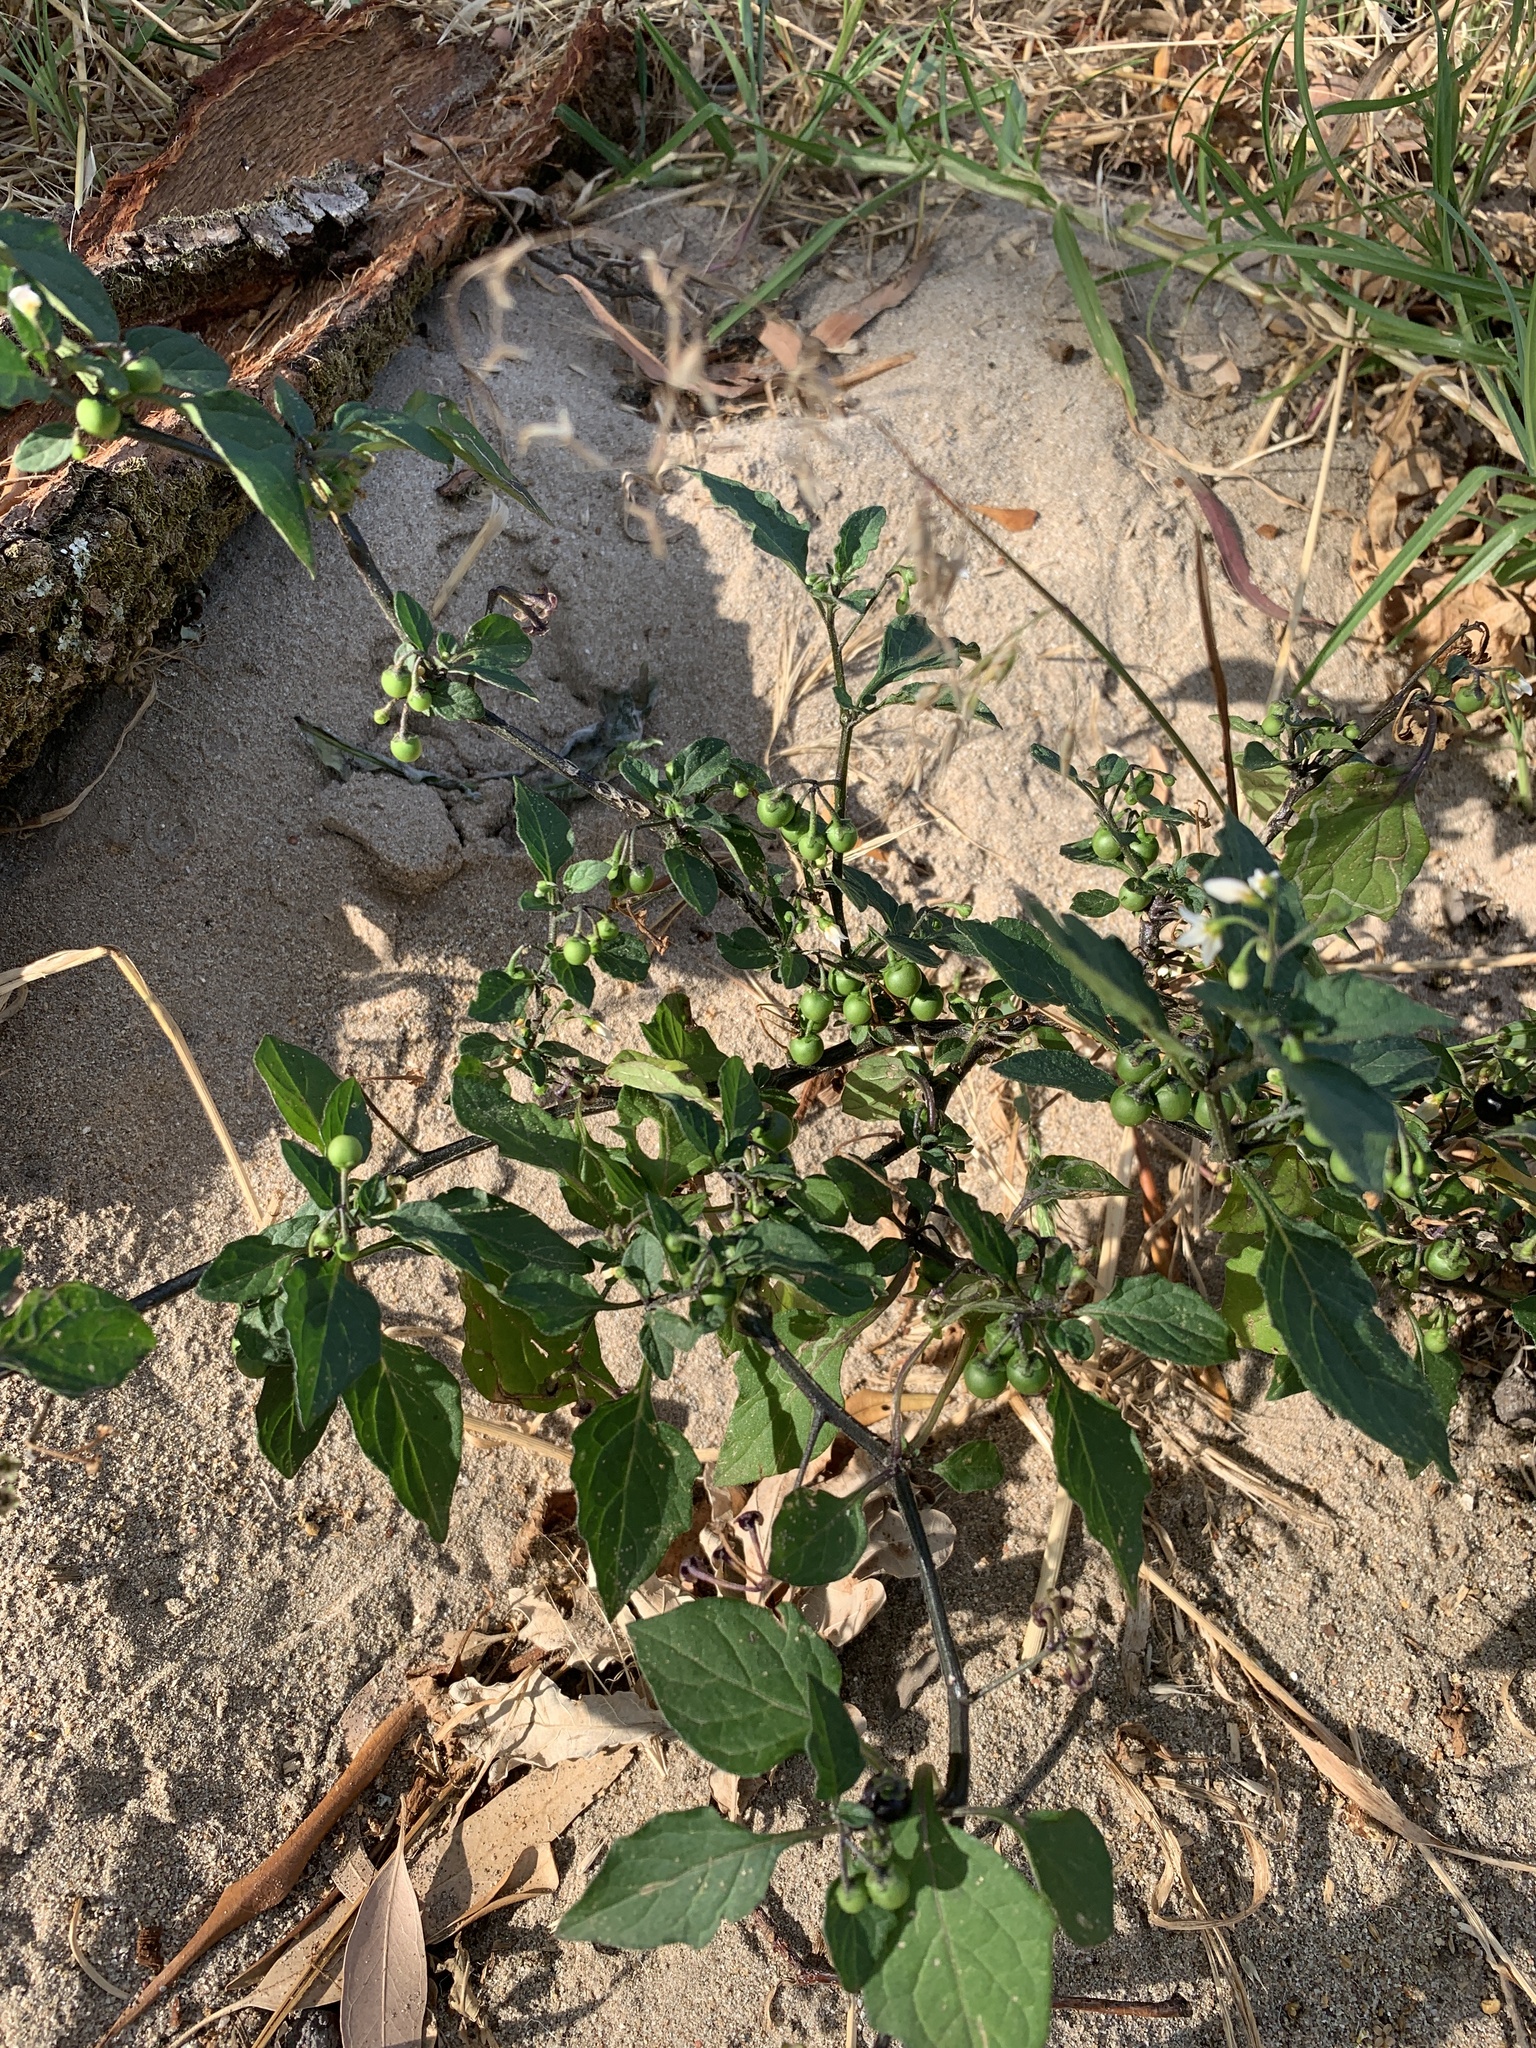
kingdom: Plantae
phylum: Tracheophyta
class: Magnoliopsida
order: Solanales
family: Solanaceae
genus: Solanum
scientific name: Solanum nigrum
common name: Black nightshade
